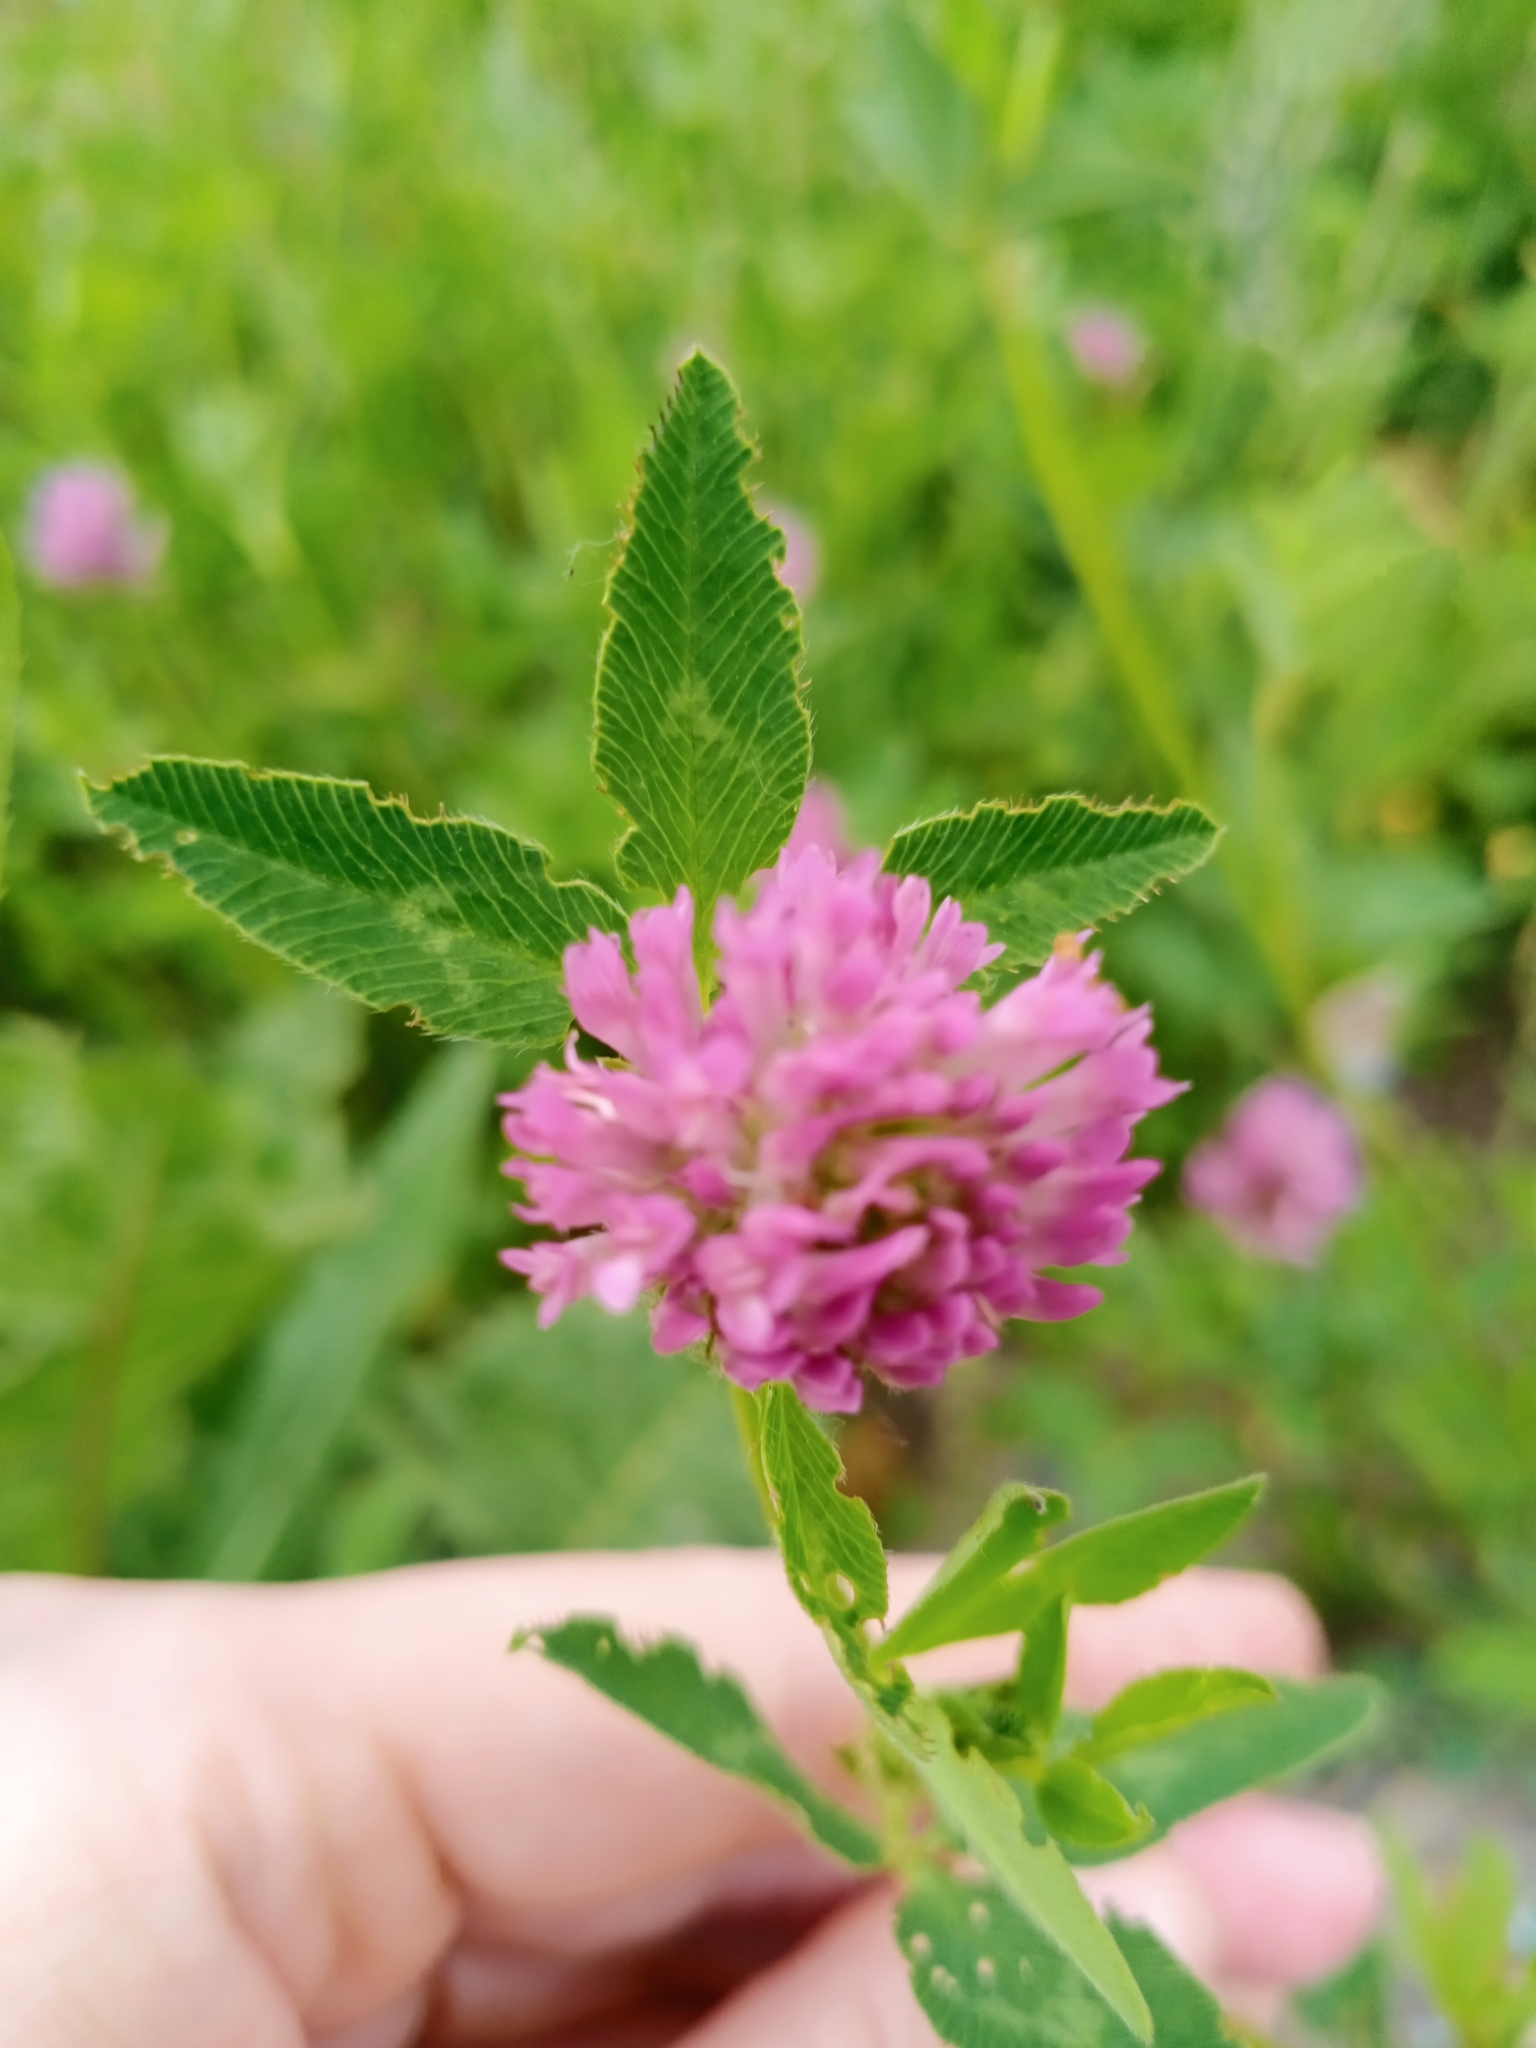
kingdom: Plantae
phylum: Tracheophyta
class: Magnoliopsida
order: Fabales
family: Fabaceae
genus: Trifolium
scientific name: Trifolium pratense
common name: Red clover
